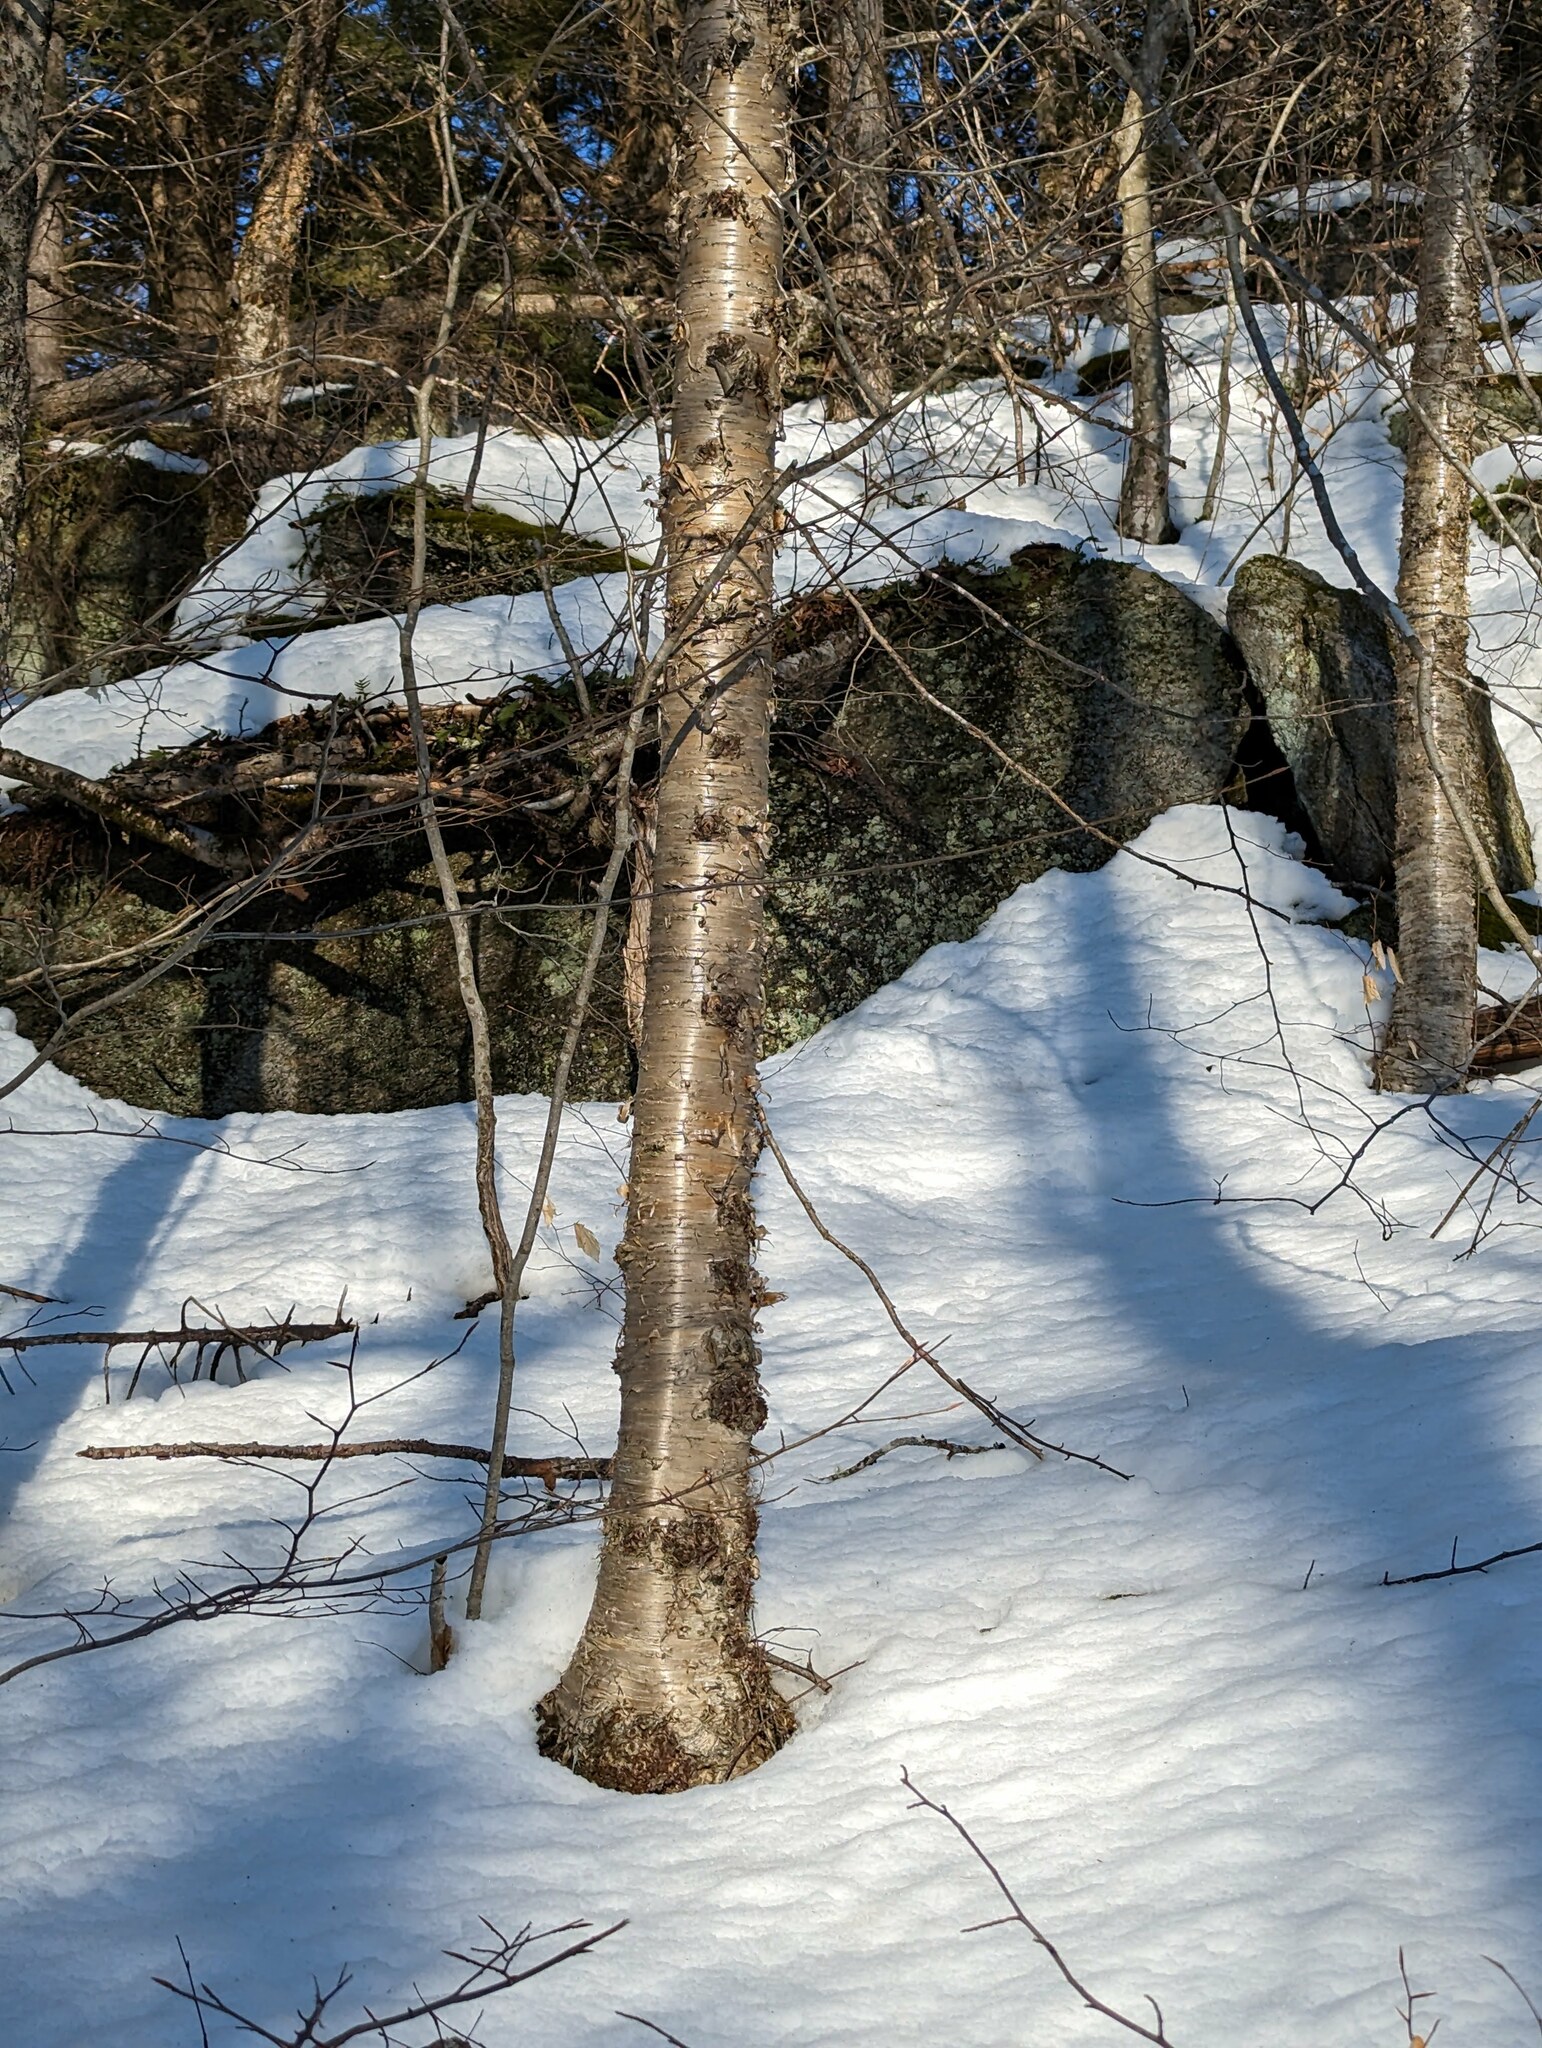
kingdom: Plantae
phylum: Tracheophyta
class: Magnoliopsida
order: Fagales
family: Betulaceae
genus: Betula
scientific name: Betula alleghaniensis
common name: Yellow birch
